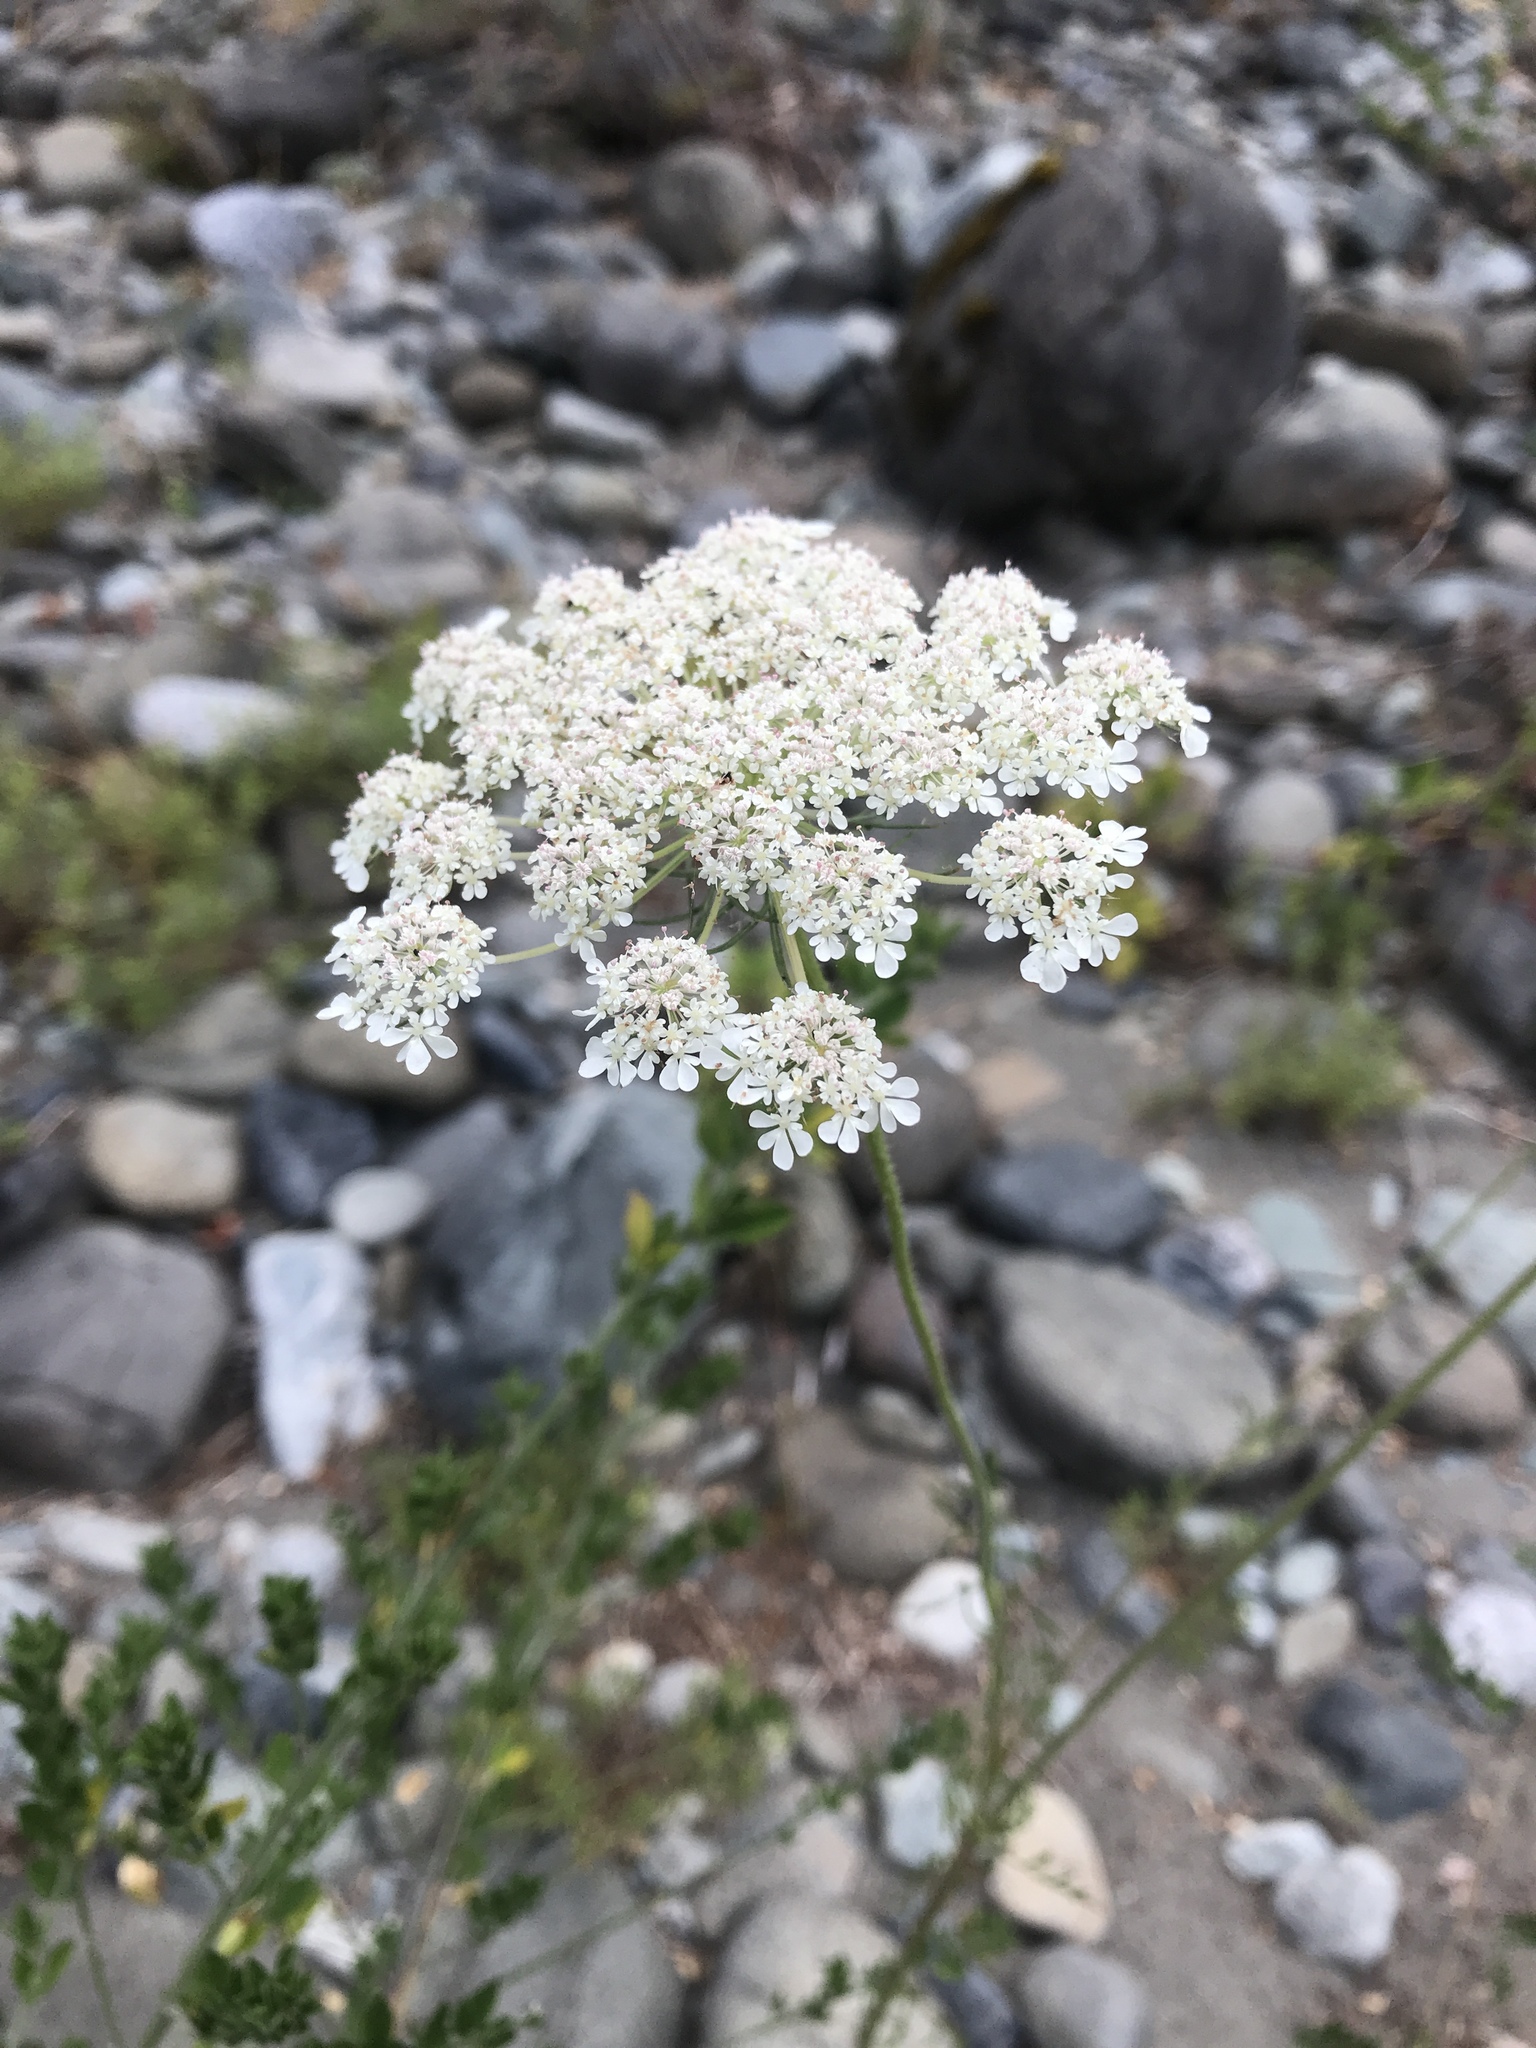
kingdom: Plantae
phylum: Tracheophyta
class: Magnoliopsida
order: Apiales
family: Apiaceae
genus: Daucus
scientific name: Daucus carota
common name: Wild carrot
